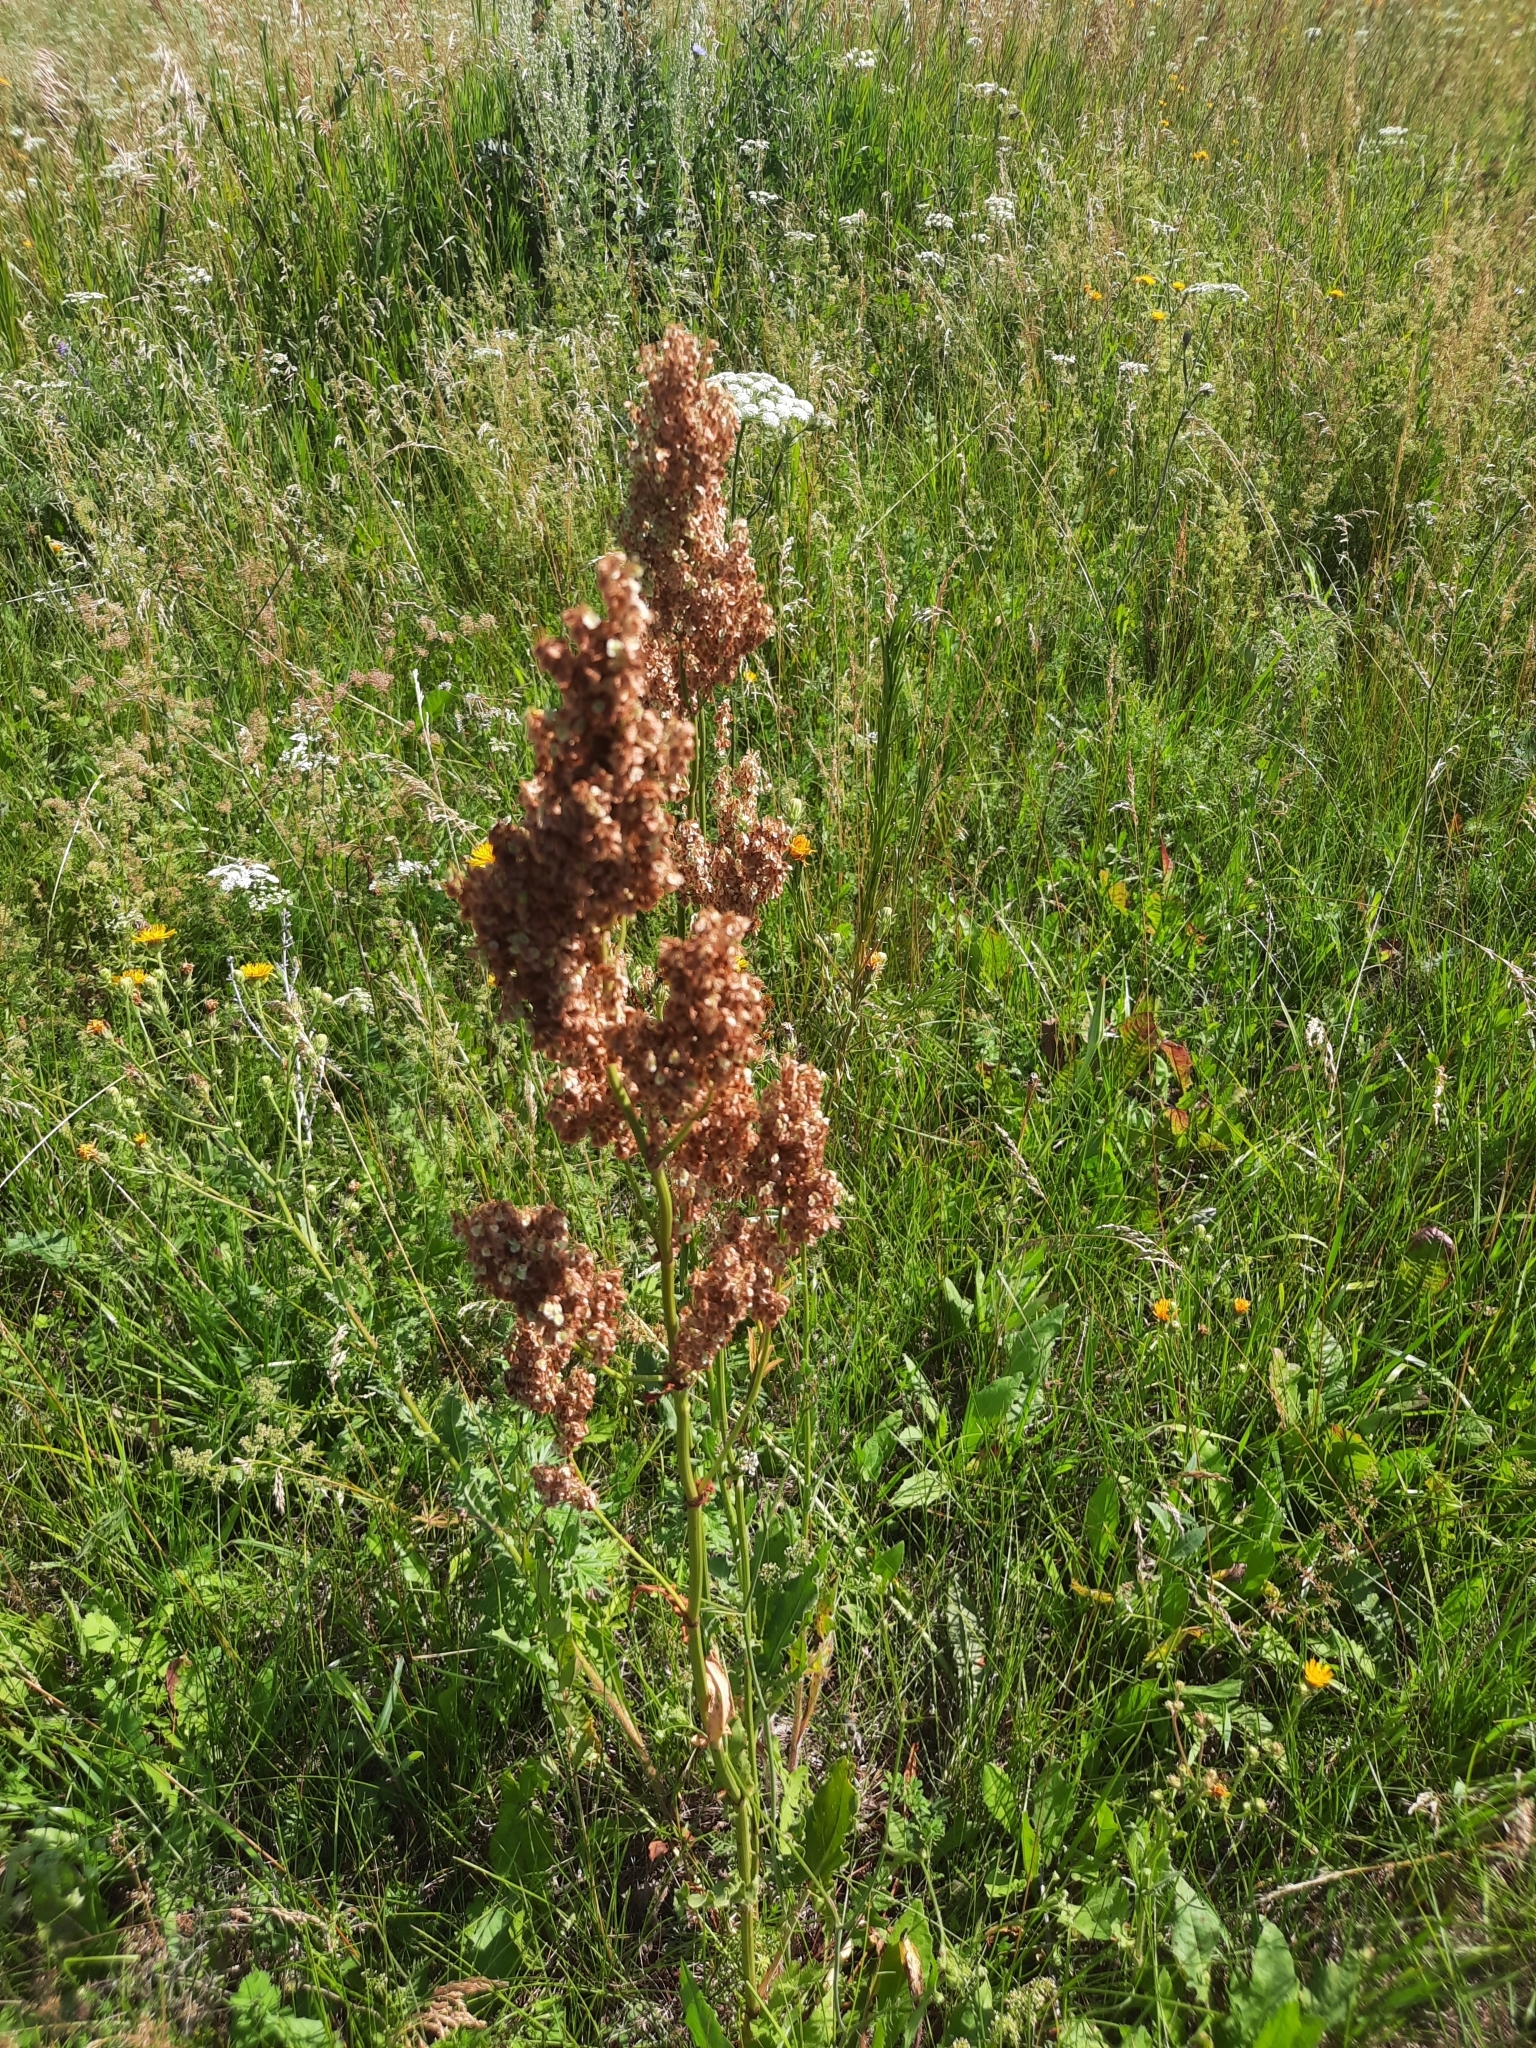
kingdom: Plantae
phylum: Tracheophyta
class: Magnoliopsida
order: Caryophyllales
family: Polygonaceae
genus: Rumex
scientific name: Rumex thyrsiflorus
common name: Garden sorrel
